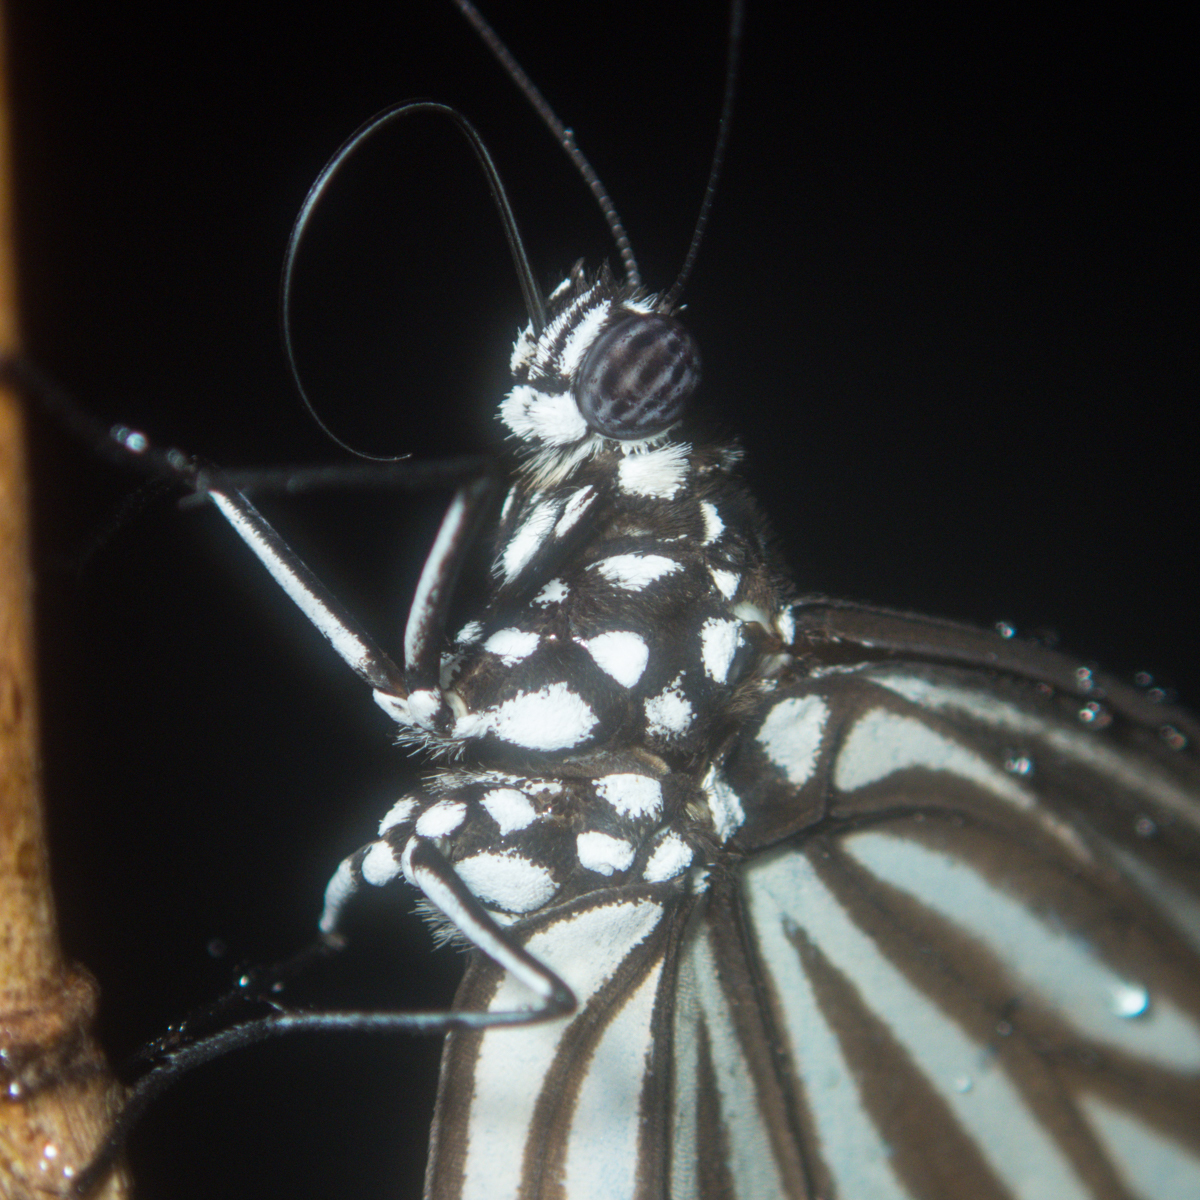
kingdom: Animalia
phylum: Arthropoda
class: Insecta
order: Lepidoptera
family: Nymphalidae
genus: Parantica
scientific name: Parantica agleoides
